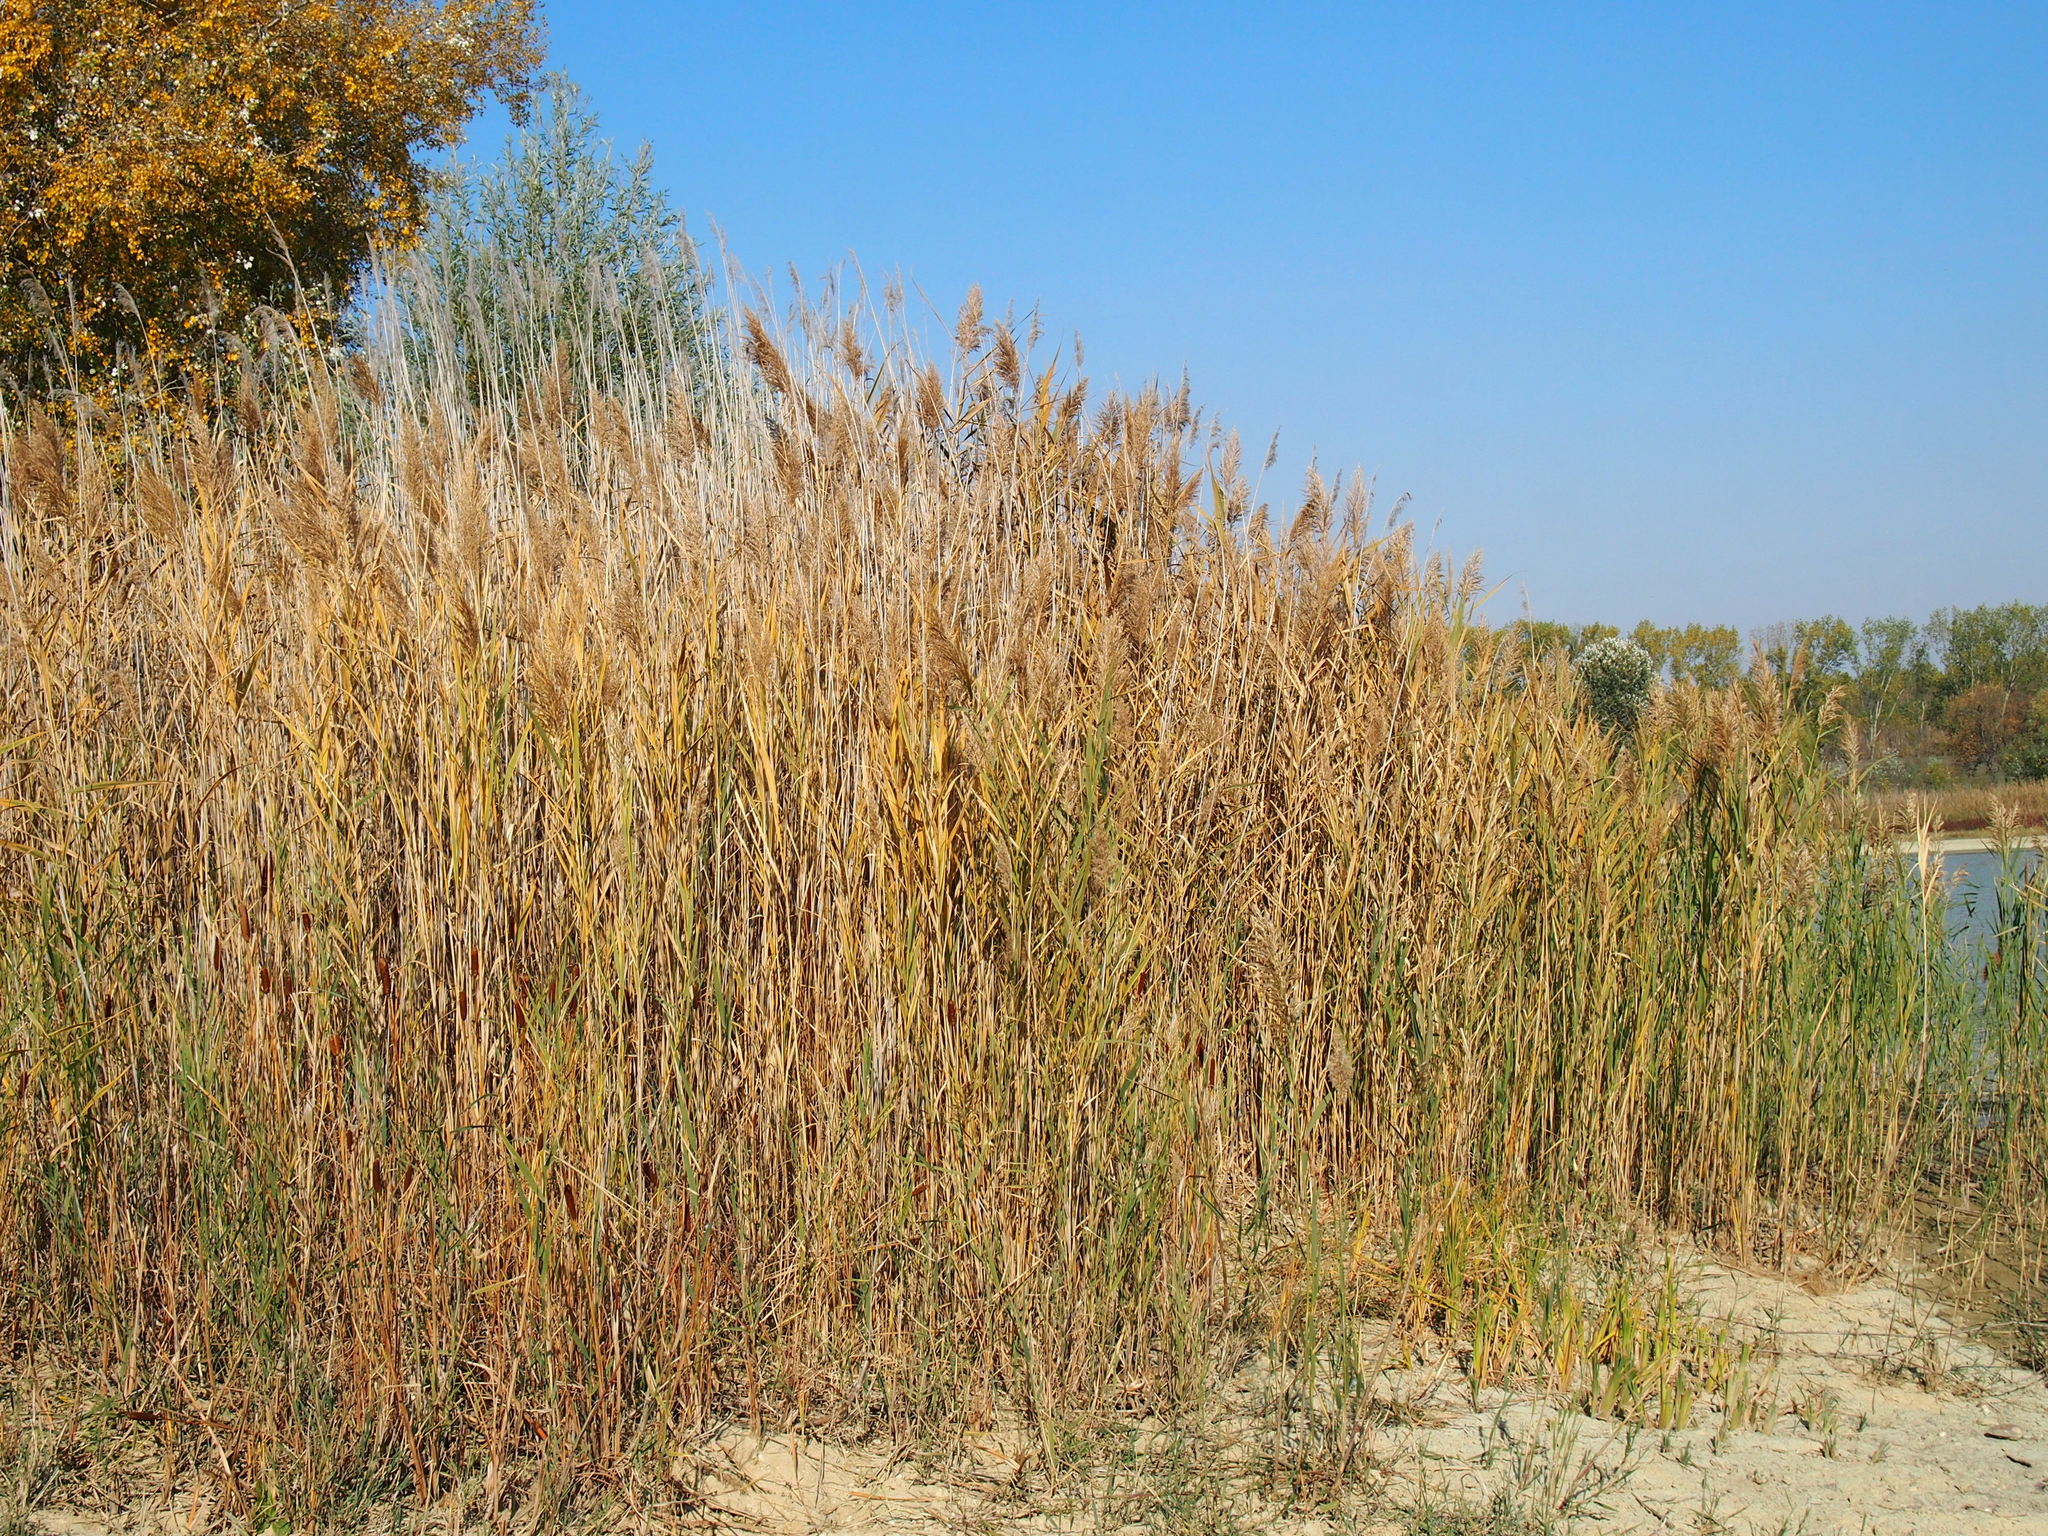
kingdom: Plantae
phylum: Tracheophyta
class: Liliopsida
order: Poales
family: Poaceae
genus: Phragmites
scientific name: Phragmites australis
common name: Common reed
